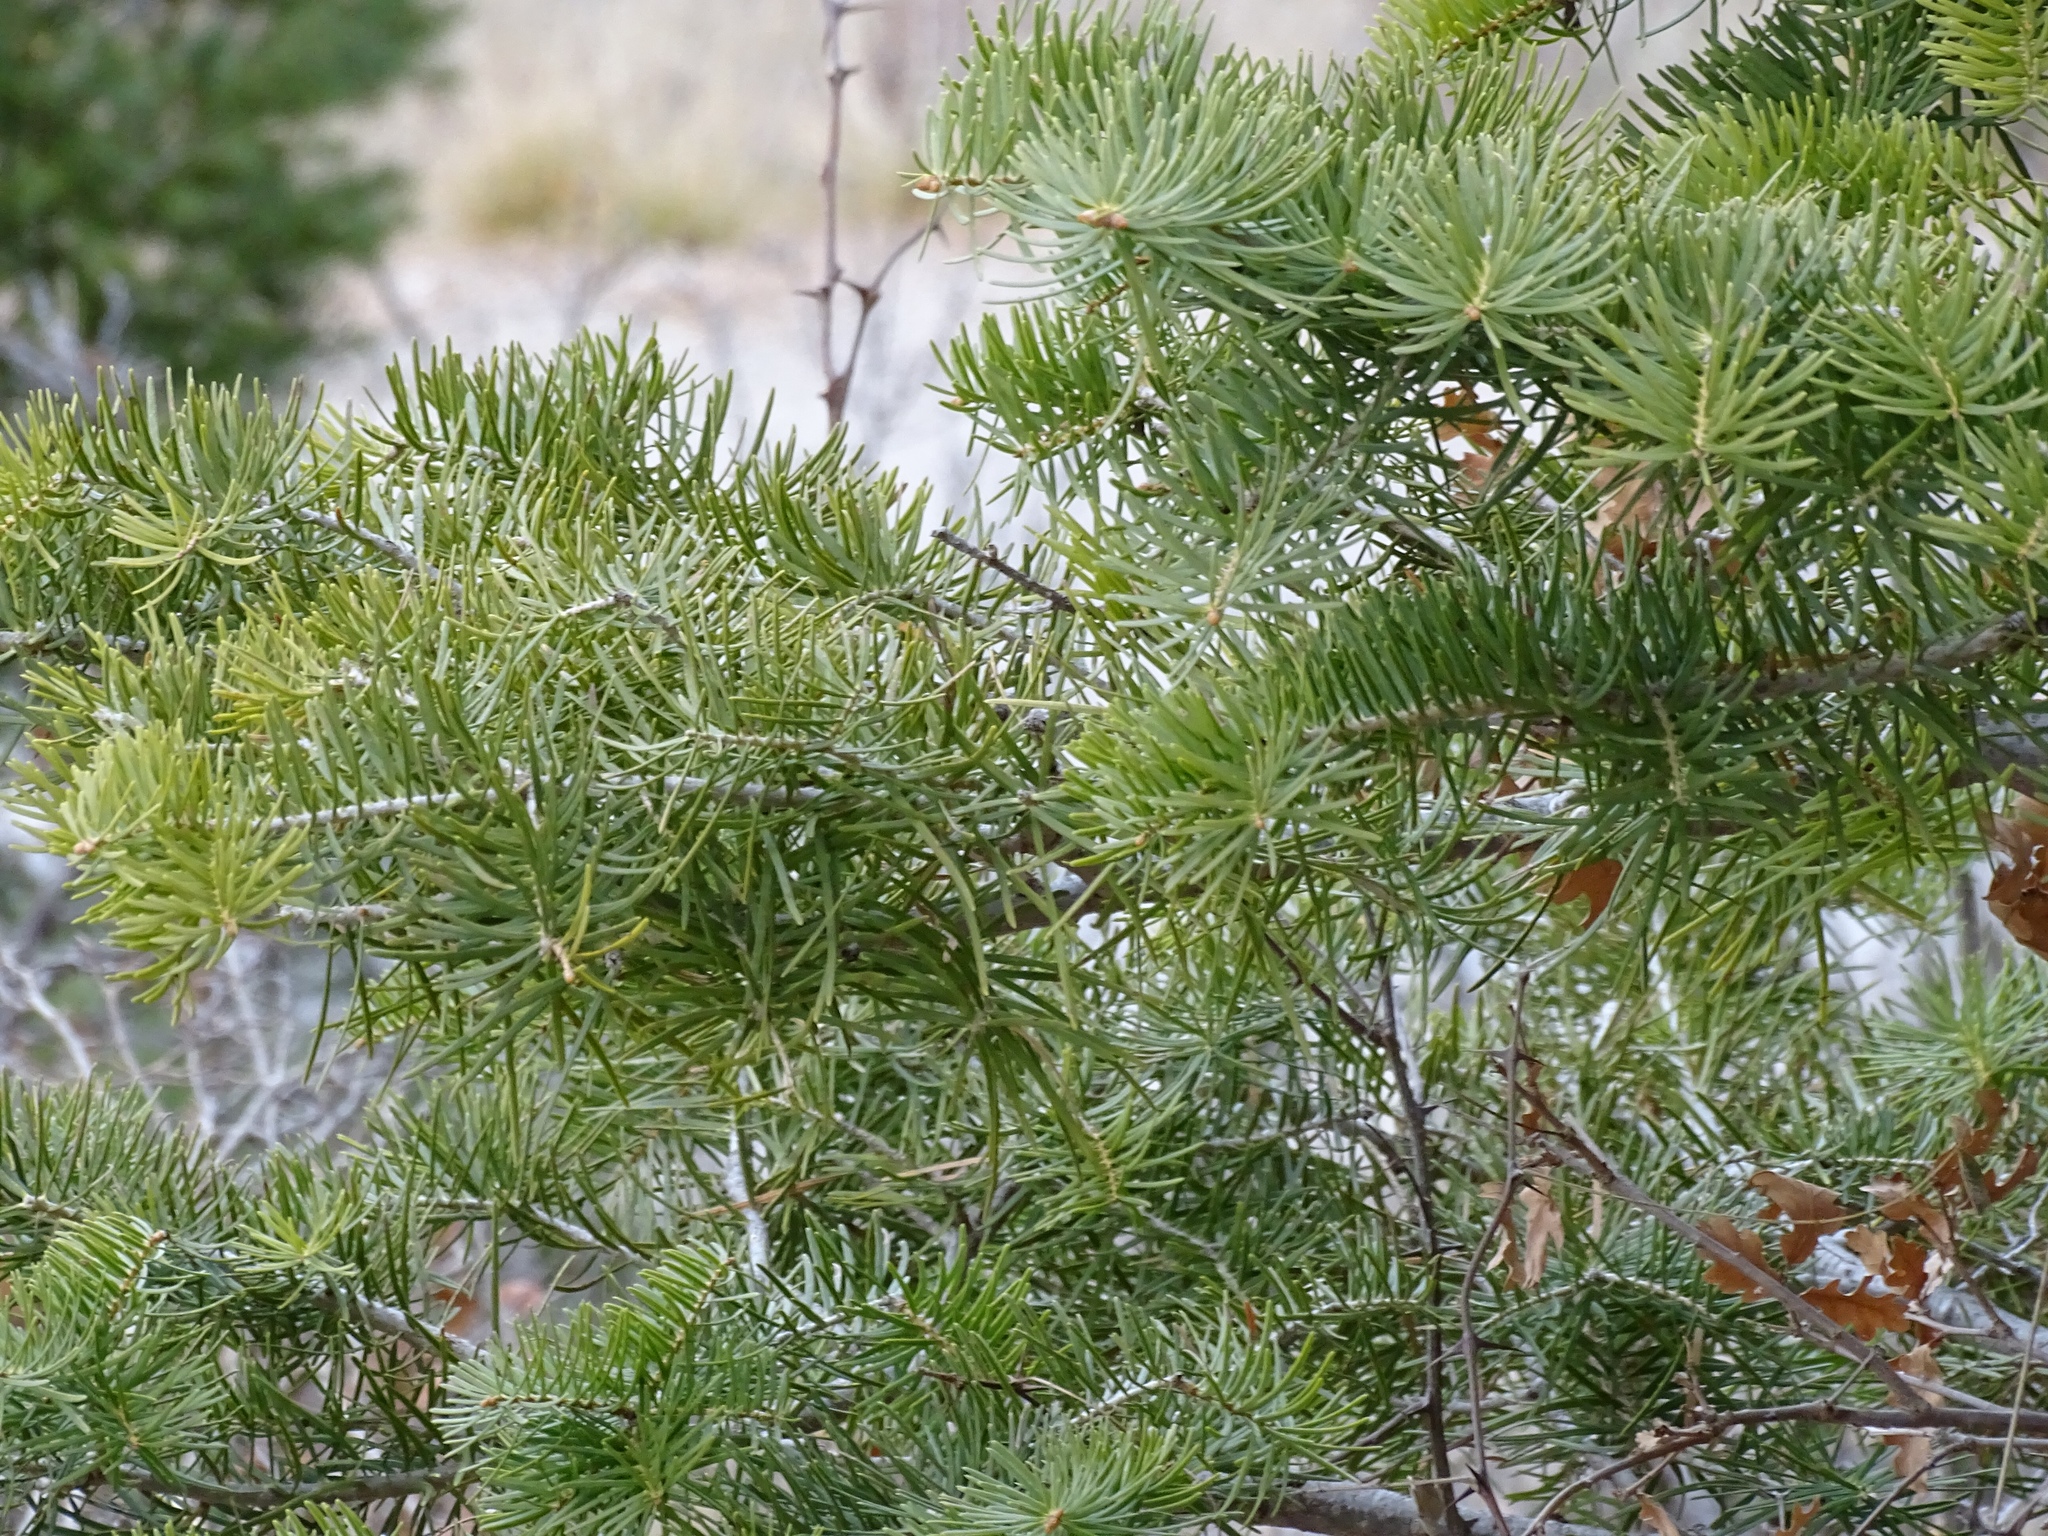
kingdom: Plantae
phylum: Tracheophyta
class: Pinopsida
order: Pinales
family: Pinaceae
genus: Abies
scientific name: Abies concolor
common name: Colorado fir
